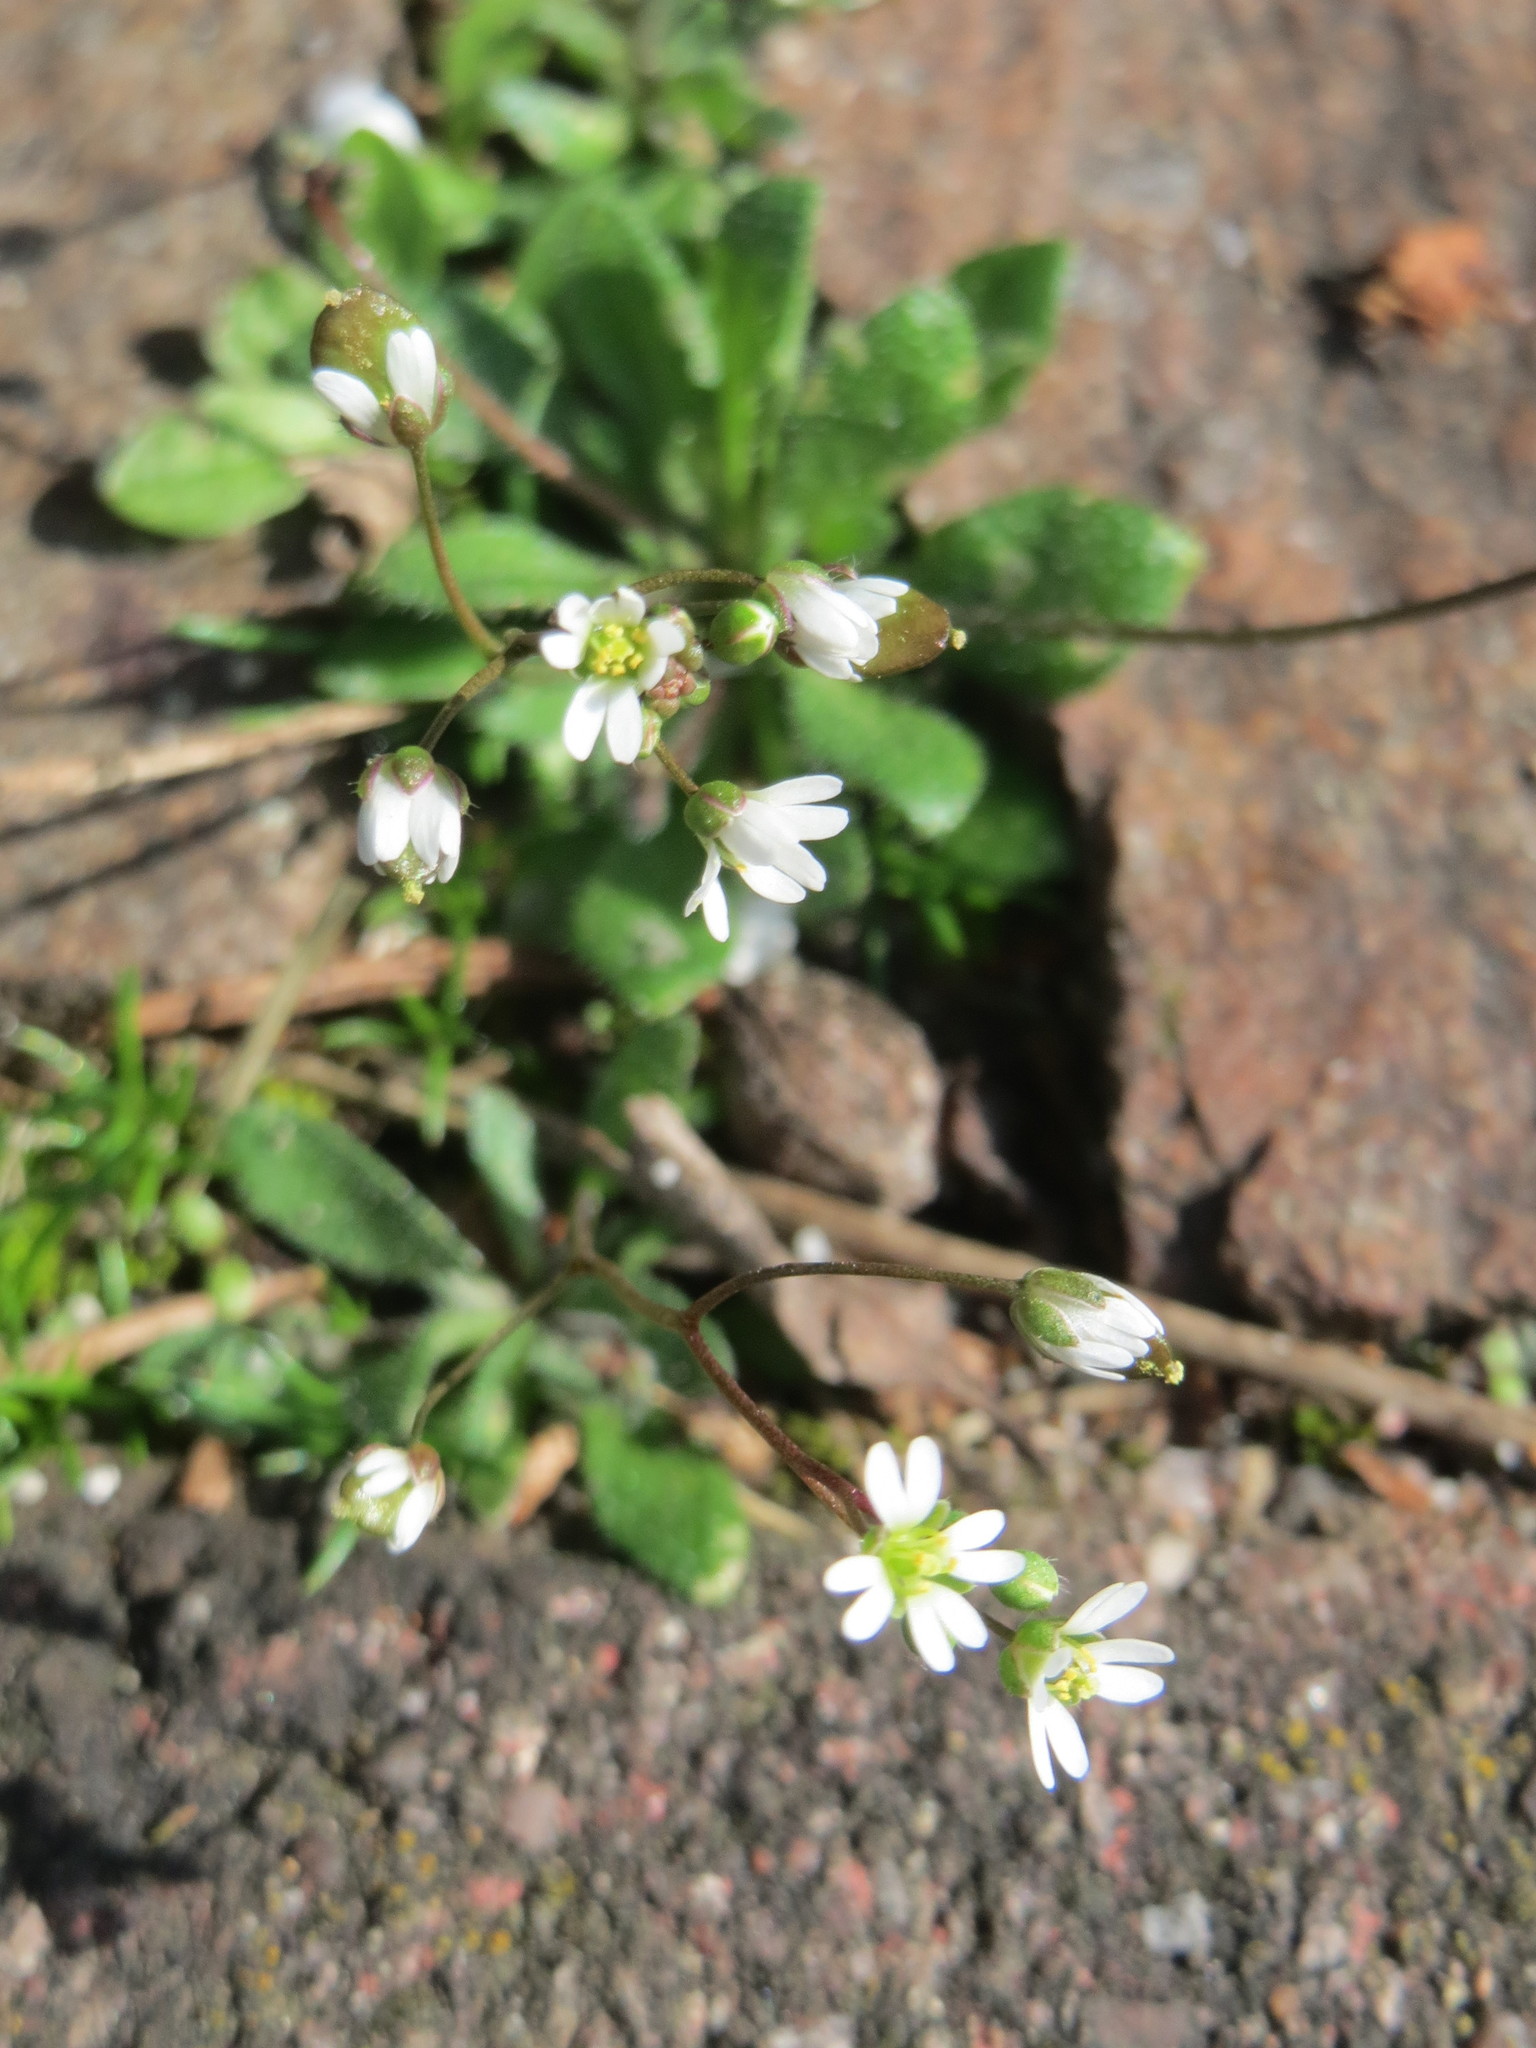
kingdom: Plantae
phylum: Tracheophyta
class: Magnoliopsida
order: Brassicales
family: Brassicaceae
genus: Draba
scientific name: Draba verna
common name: Spring draba
